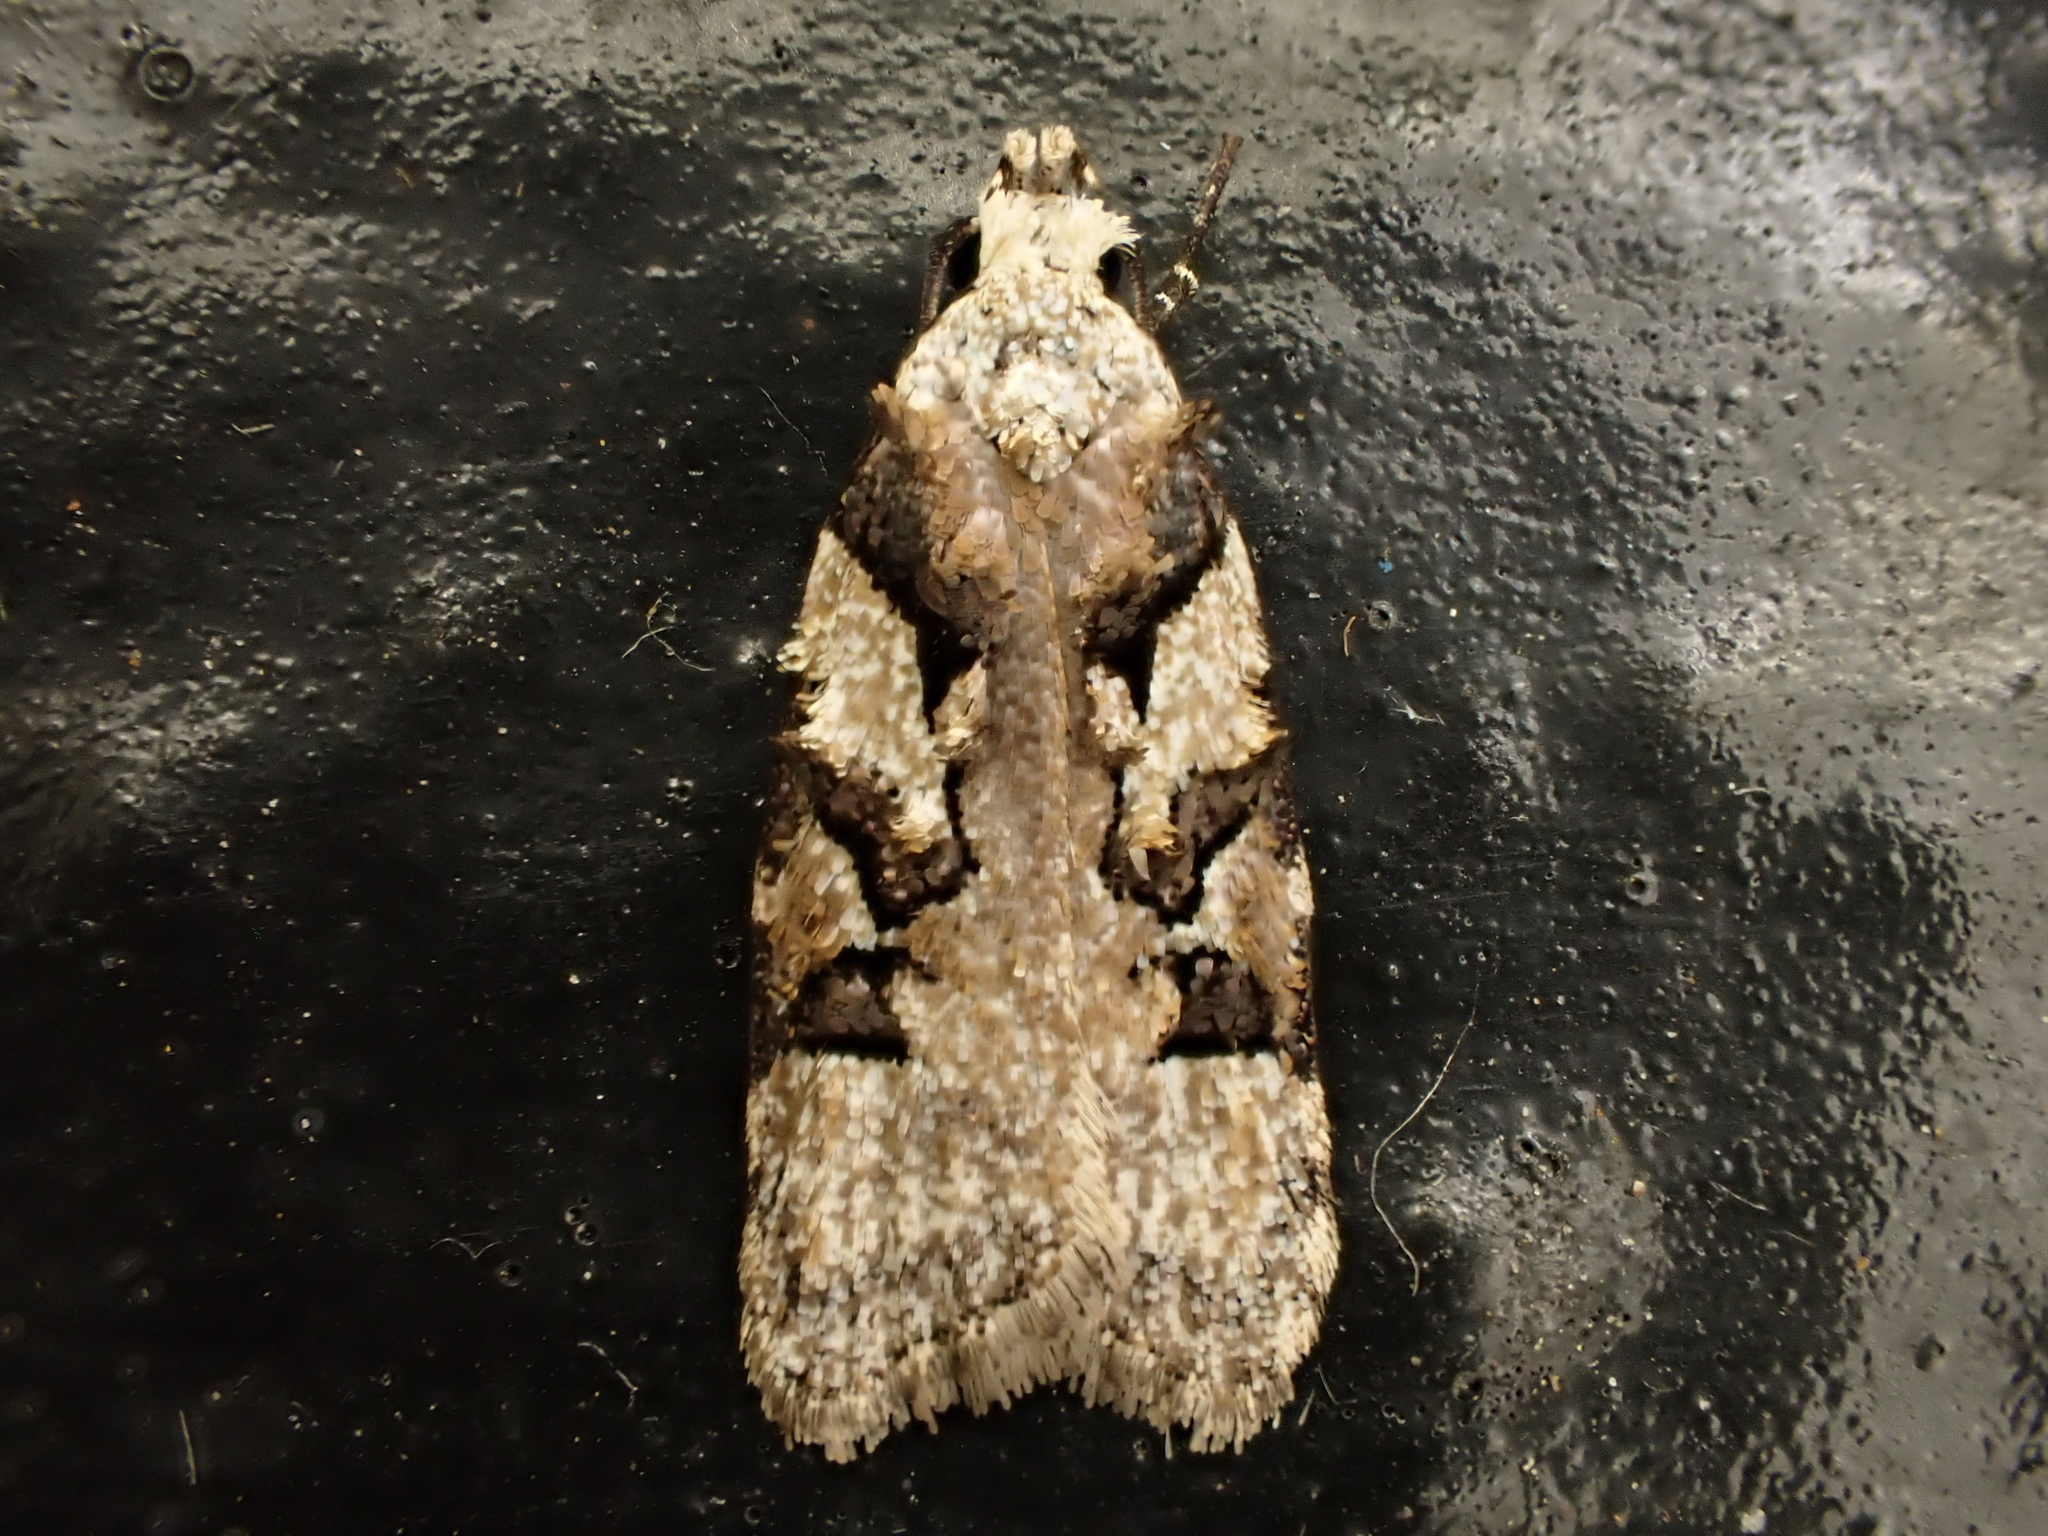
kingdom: Animalia
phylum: Arthropoda
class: Insecta
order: Lepidoptera
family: Oecophoridae
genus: Izatha
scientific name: Izatha epiphanes
